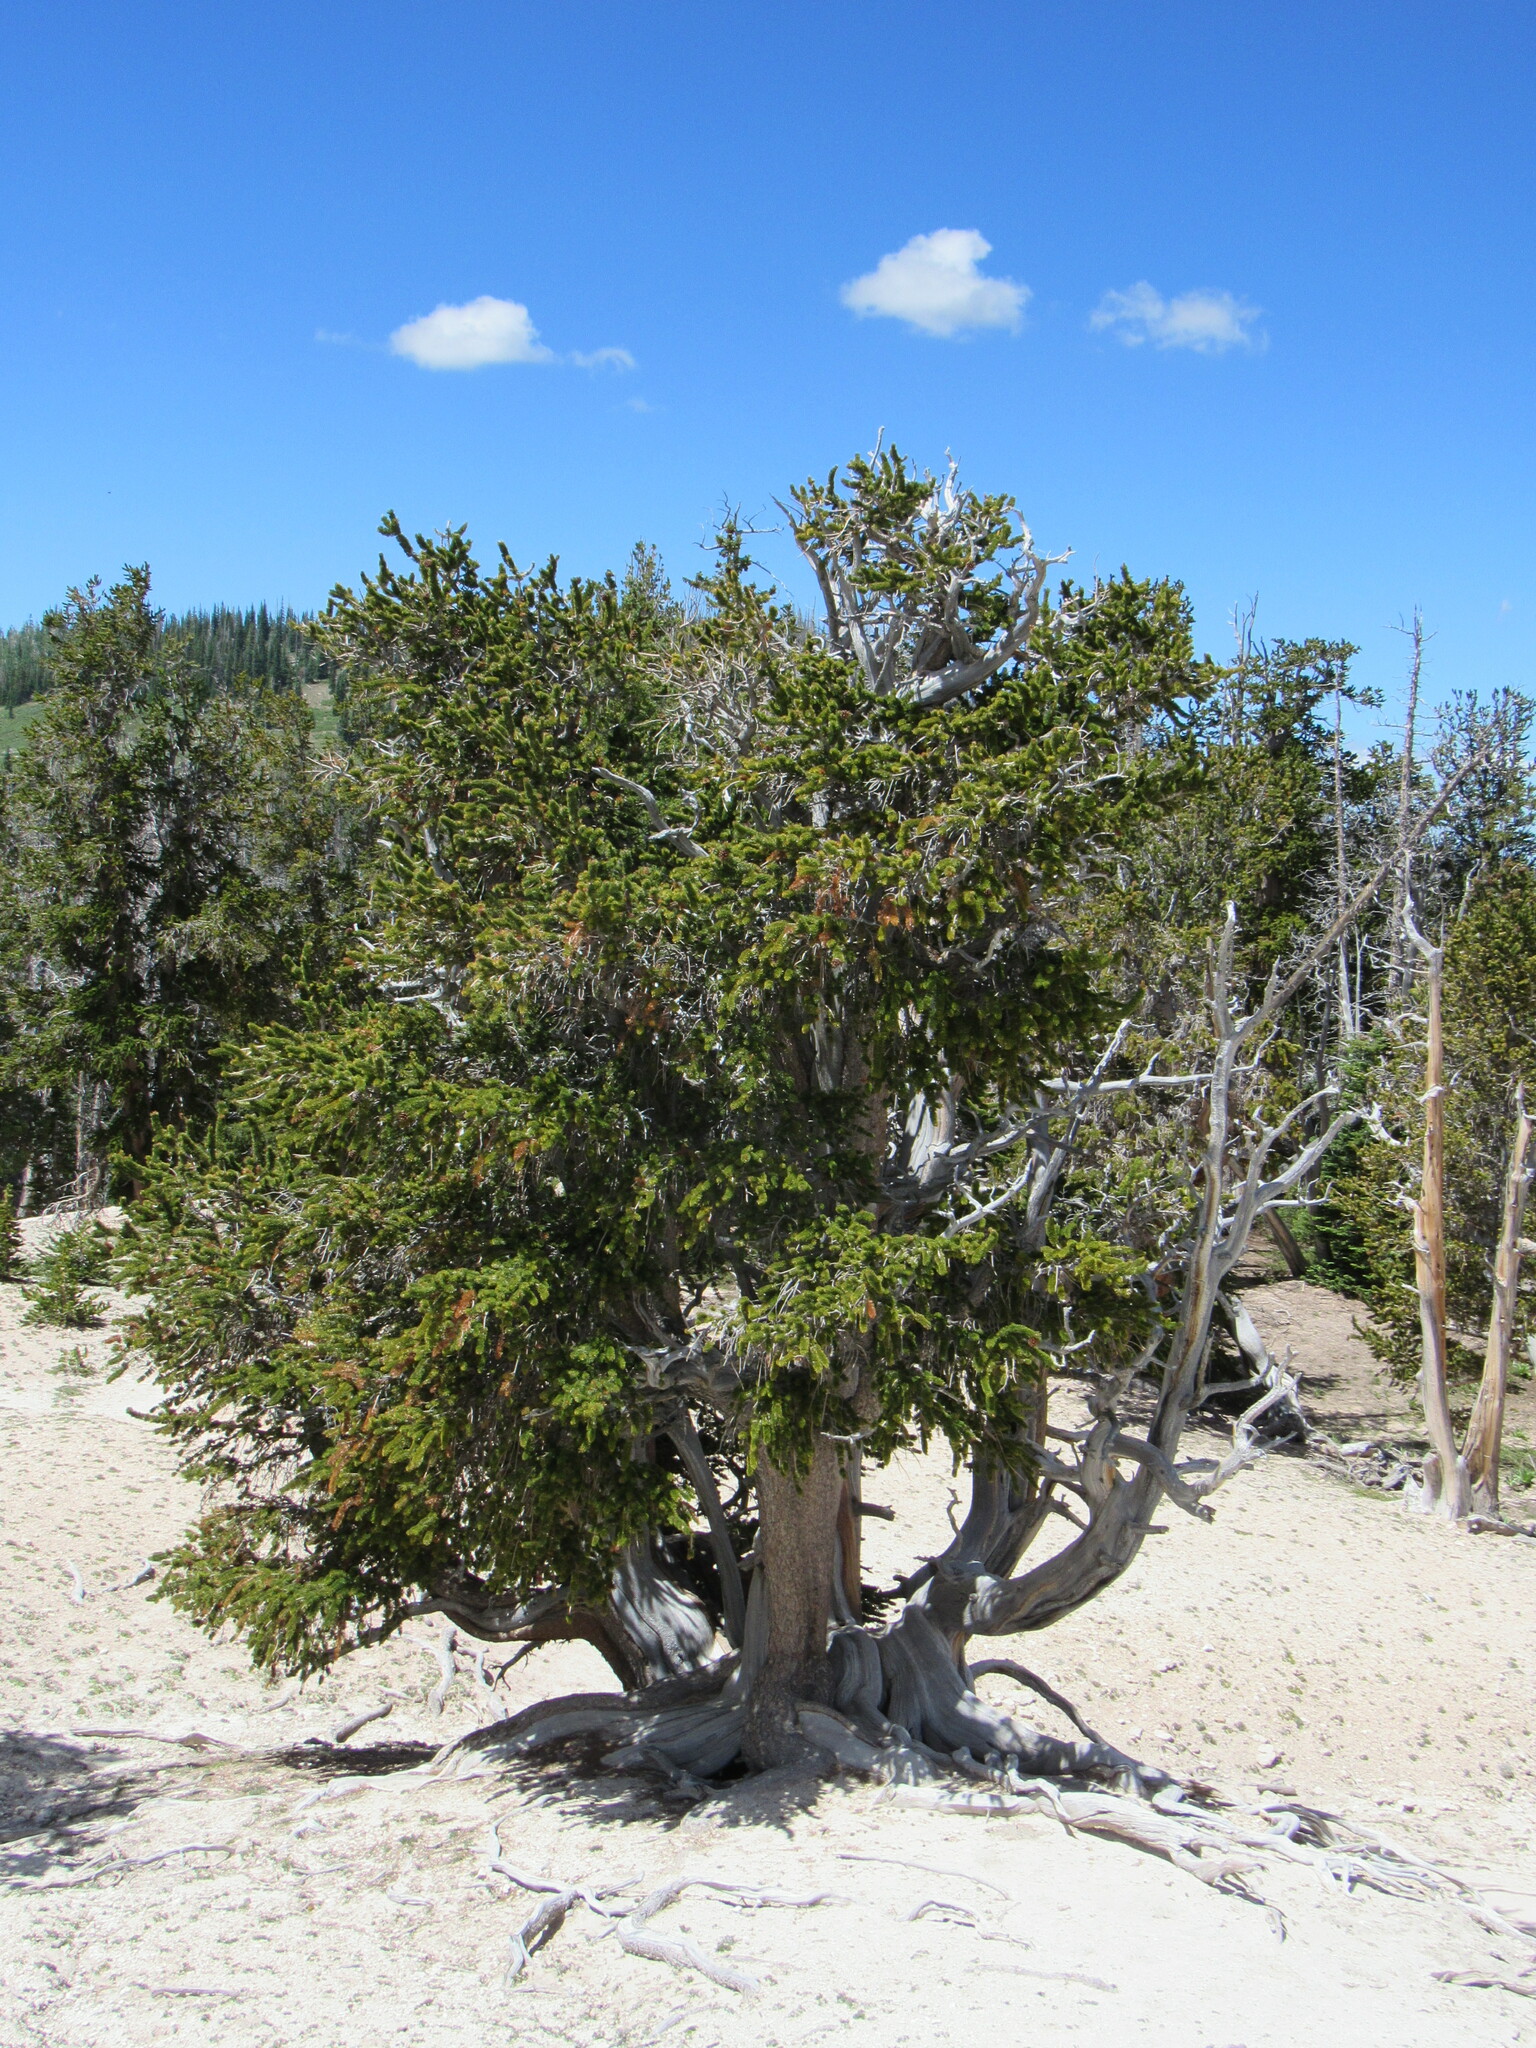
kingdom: Plantae
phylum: Tracheophyta
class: Pinopsida
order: Pinales
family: Pinaceae
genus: Pinus
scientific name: Pinus longaeva
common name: Intermountain bristlecone pine
